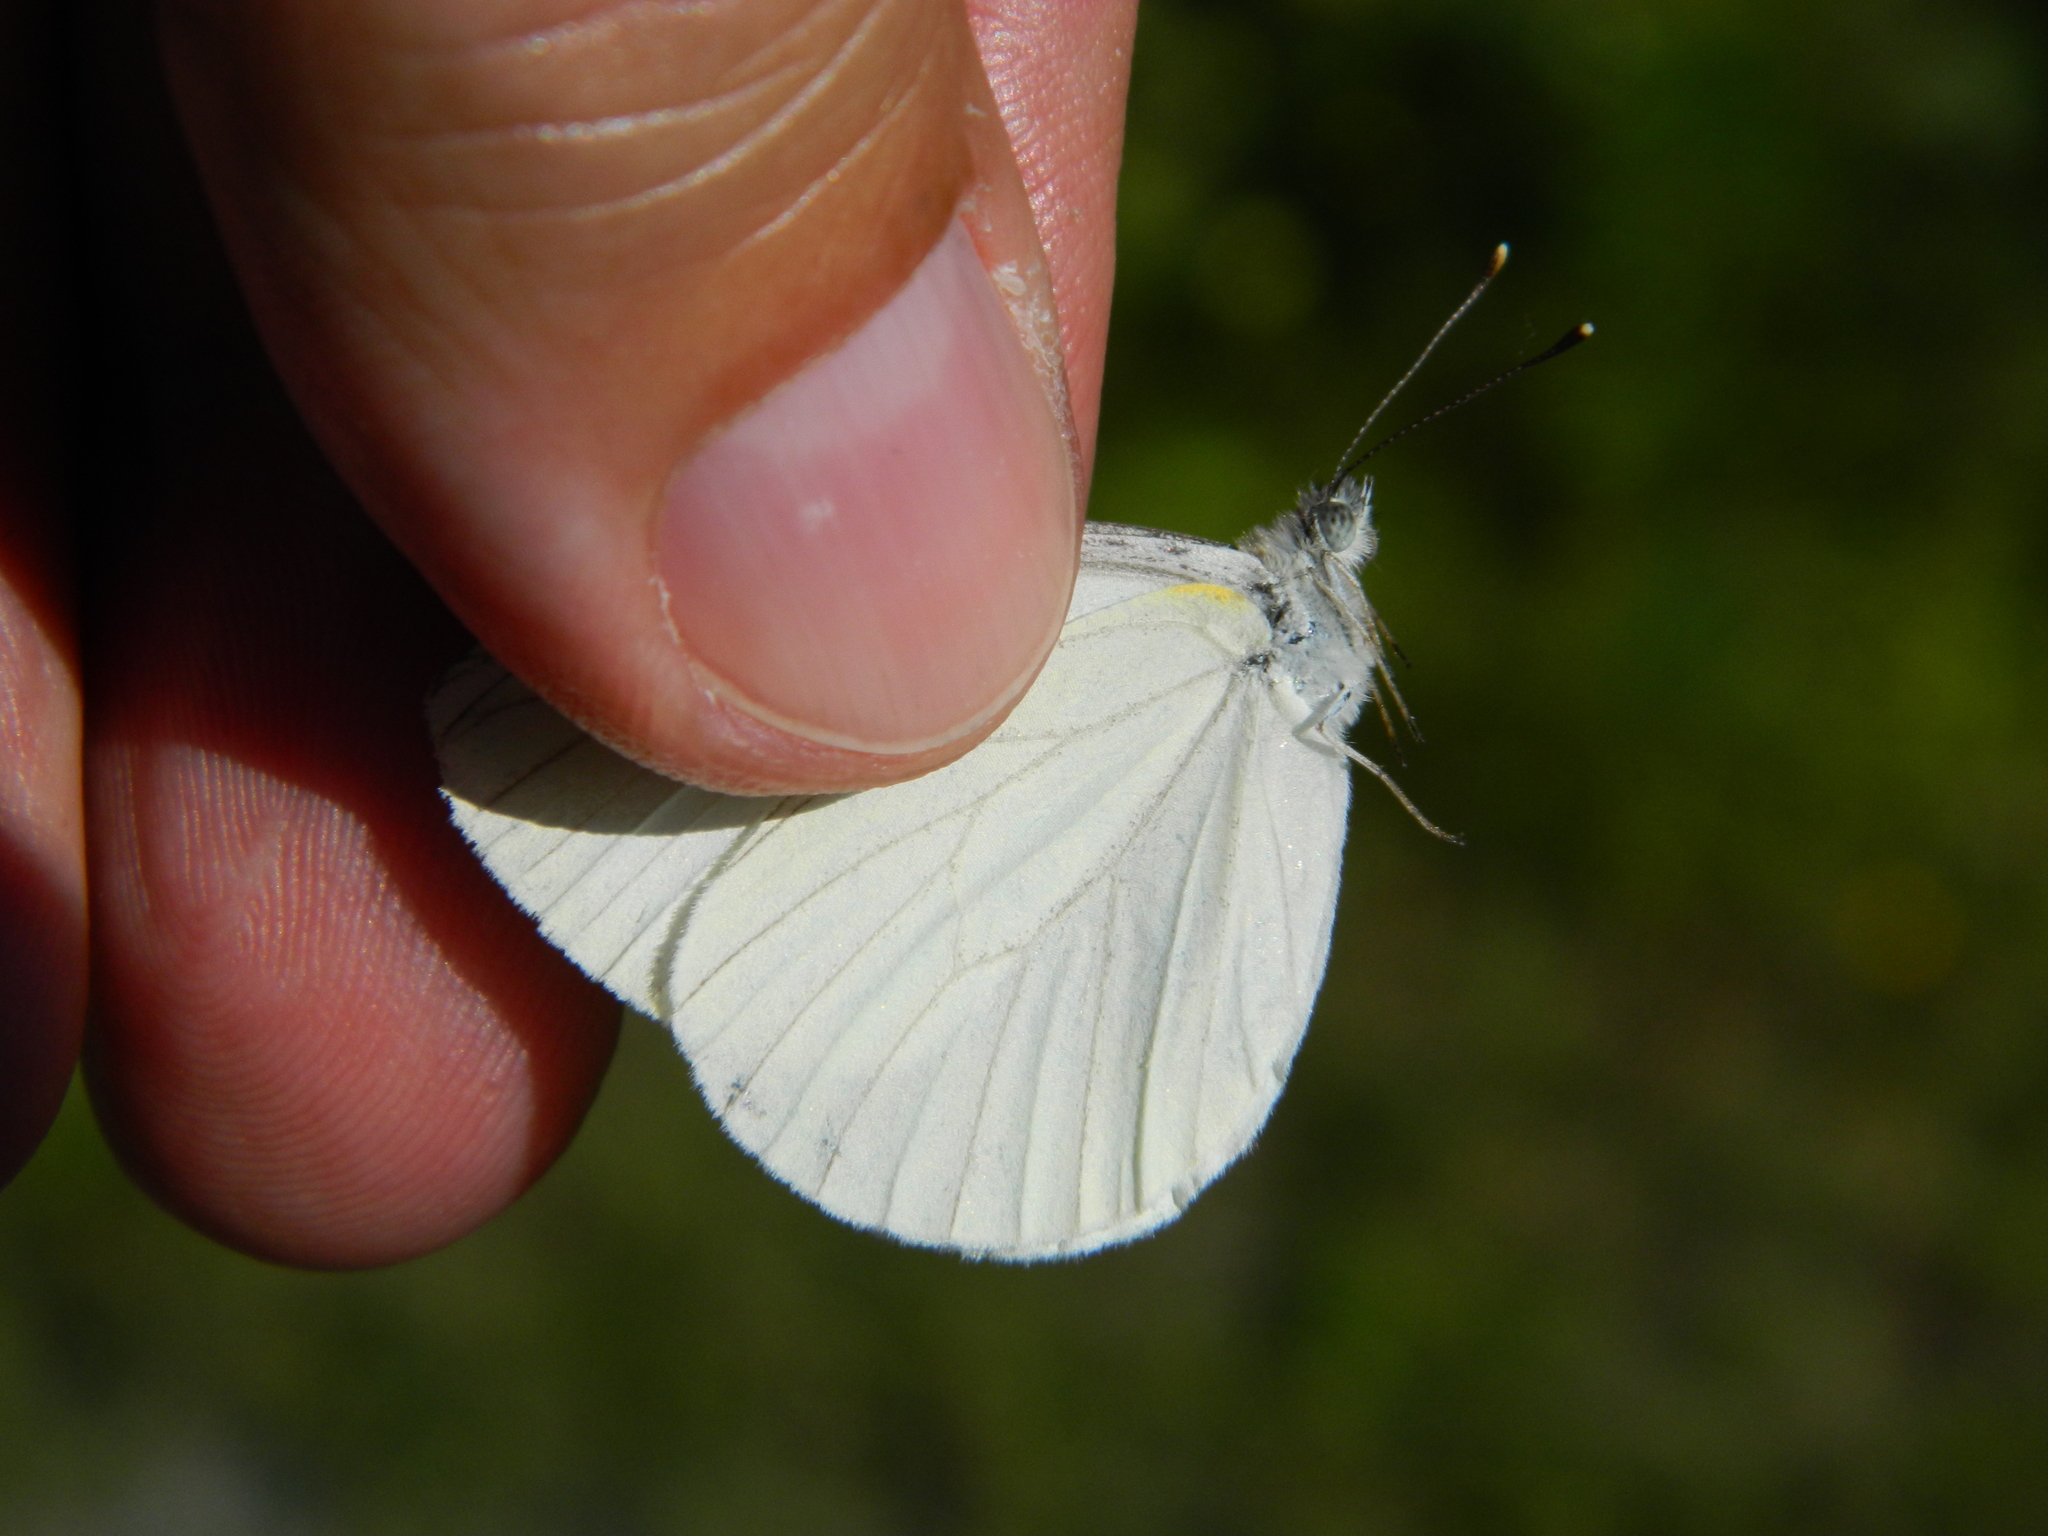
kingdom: Animalia
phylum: Arthropoda
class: Insecta
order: Lepidoptera
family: Pieridae
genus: Pieris
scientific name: Pieris oleracea
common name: Mustard white
